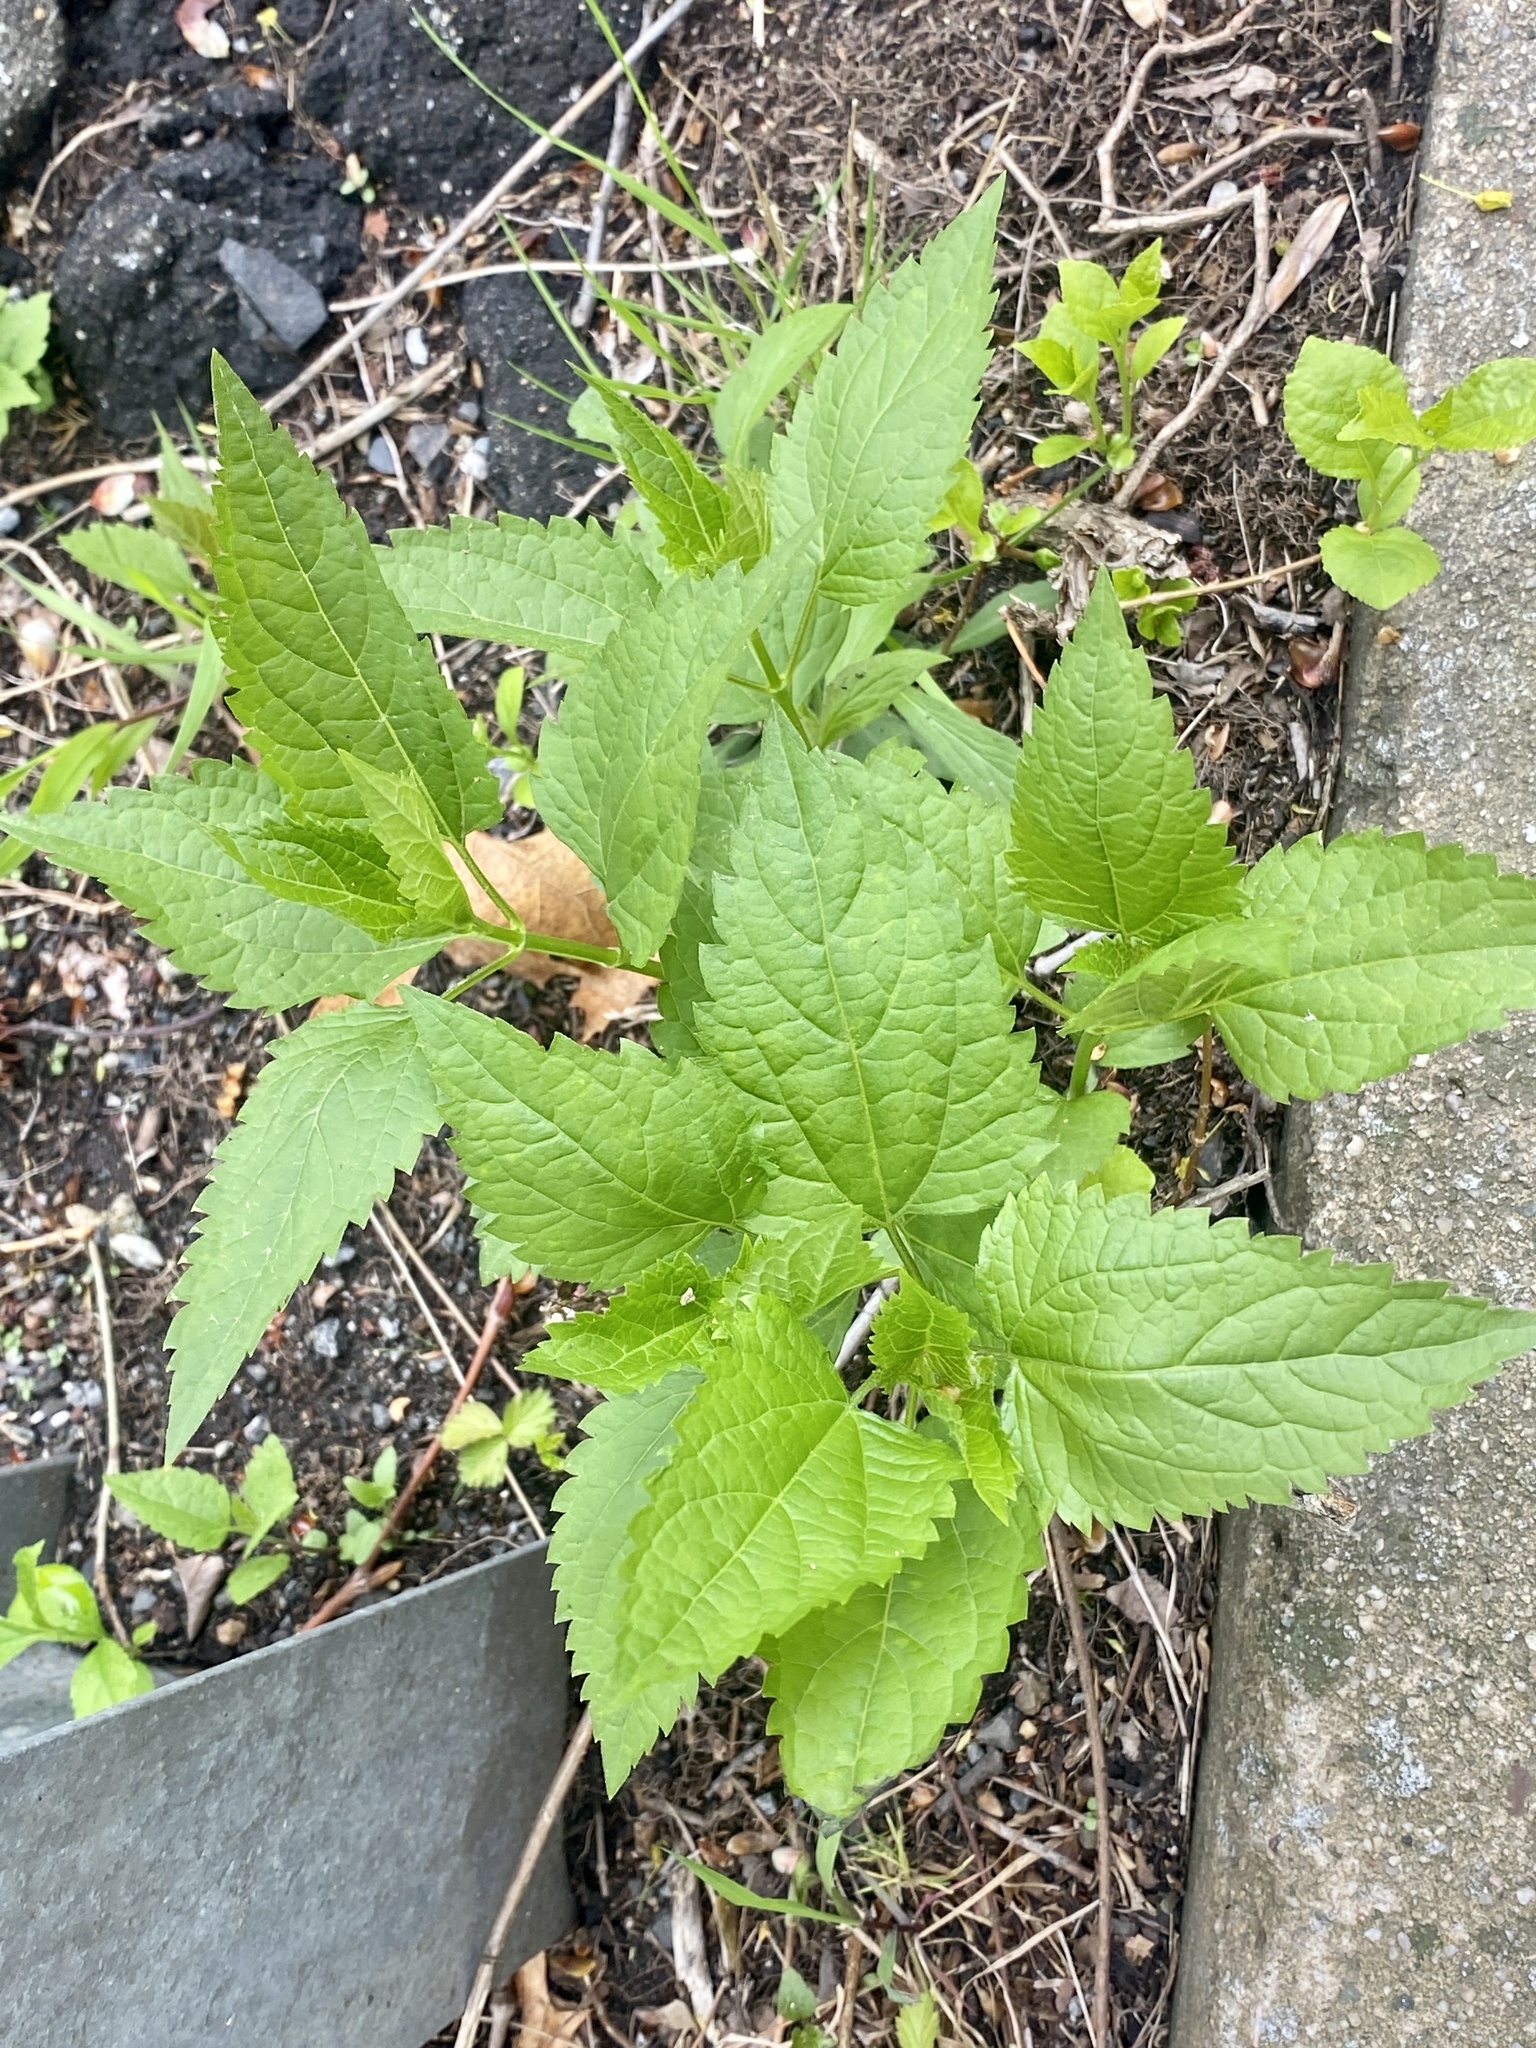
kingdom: Plantae
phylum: Tracheophyta
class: Magnoliopsida
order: Asterales
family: Asteraceae
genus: Ageratina
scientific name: Ageratina altissima
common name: White snakeroot
